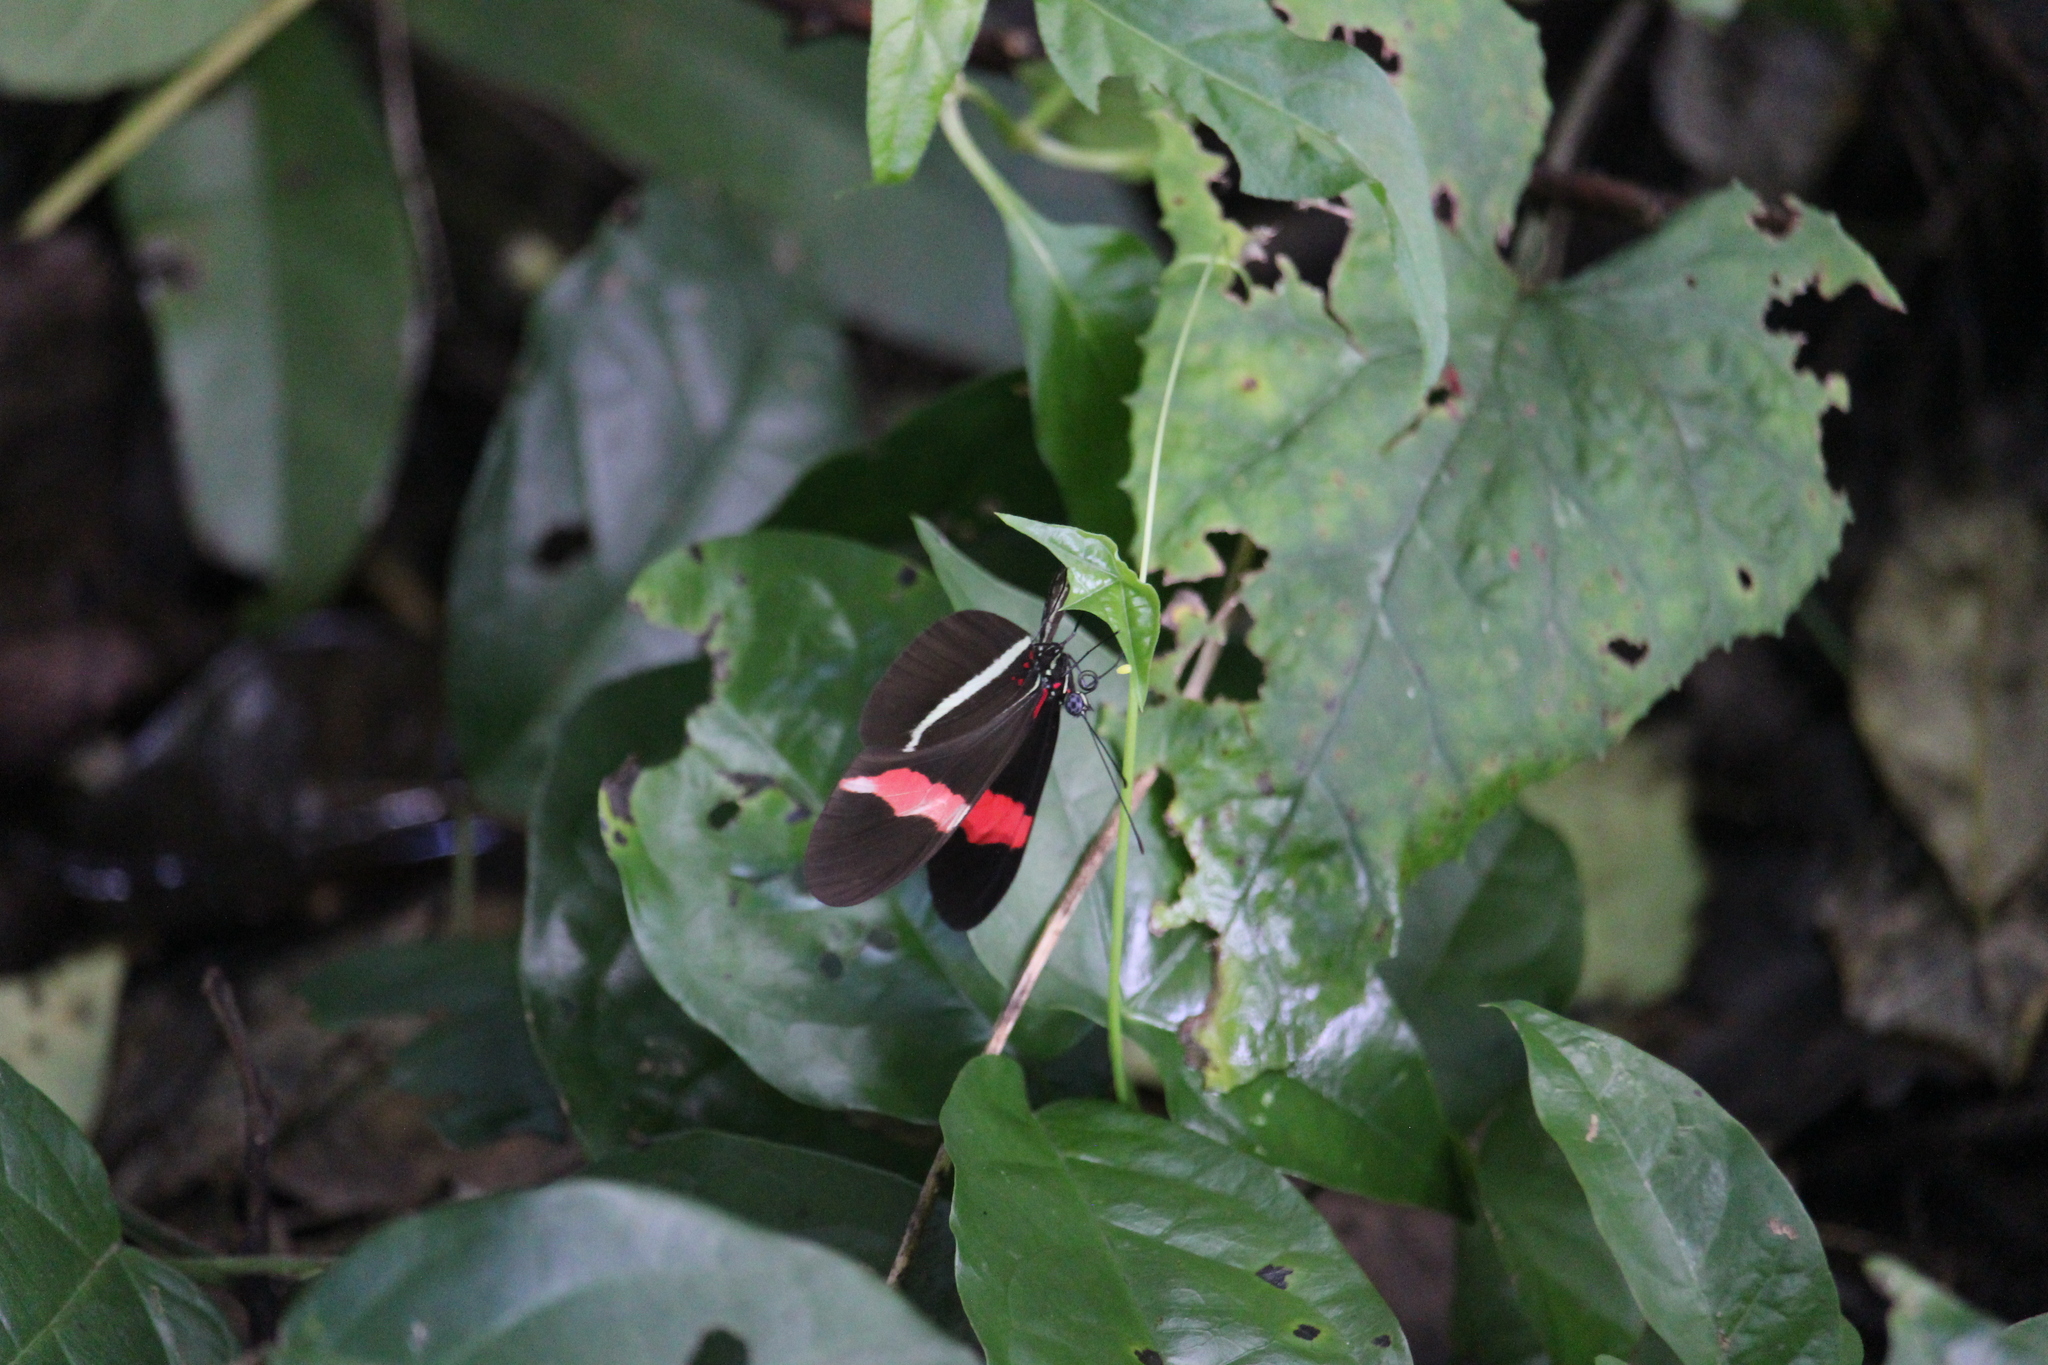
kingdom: Animalia
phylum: Arthropoda
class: Insecta
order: Lepidoptera
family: Nymphalidae
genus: Tirumala
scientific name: Tirumala petiverana
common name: Blue monarch
